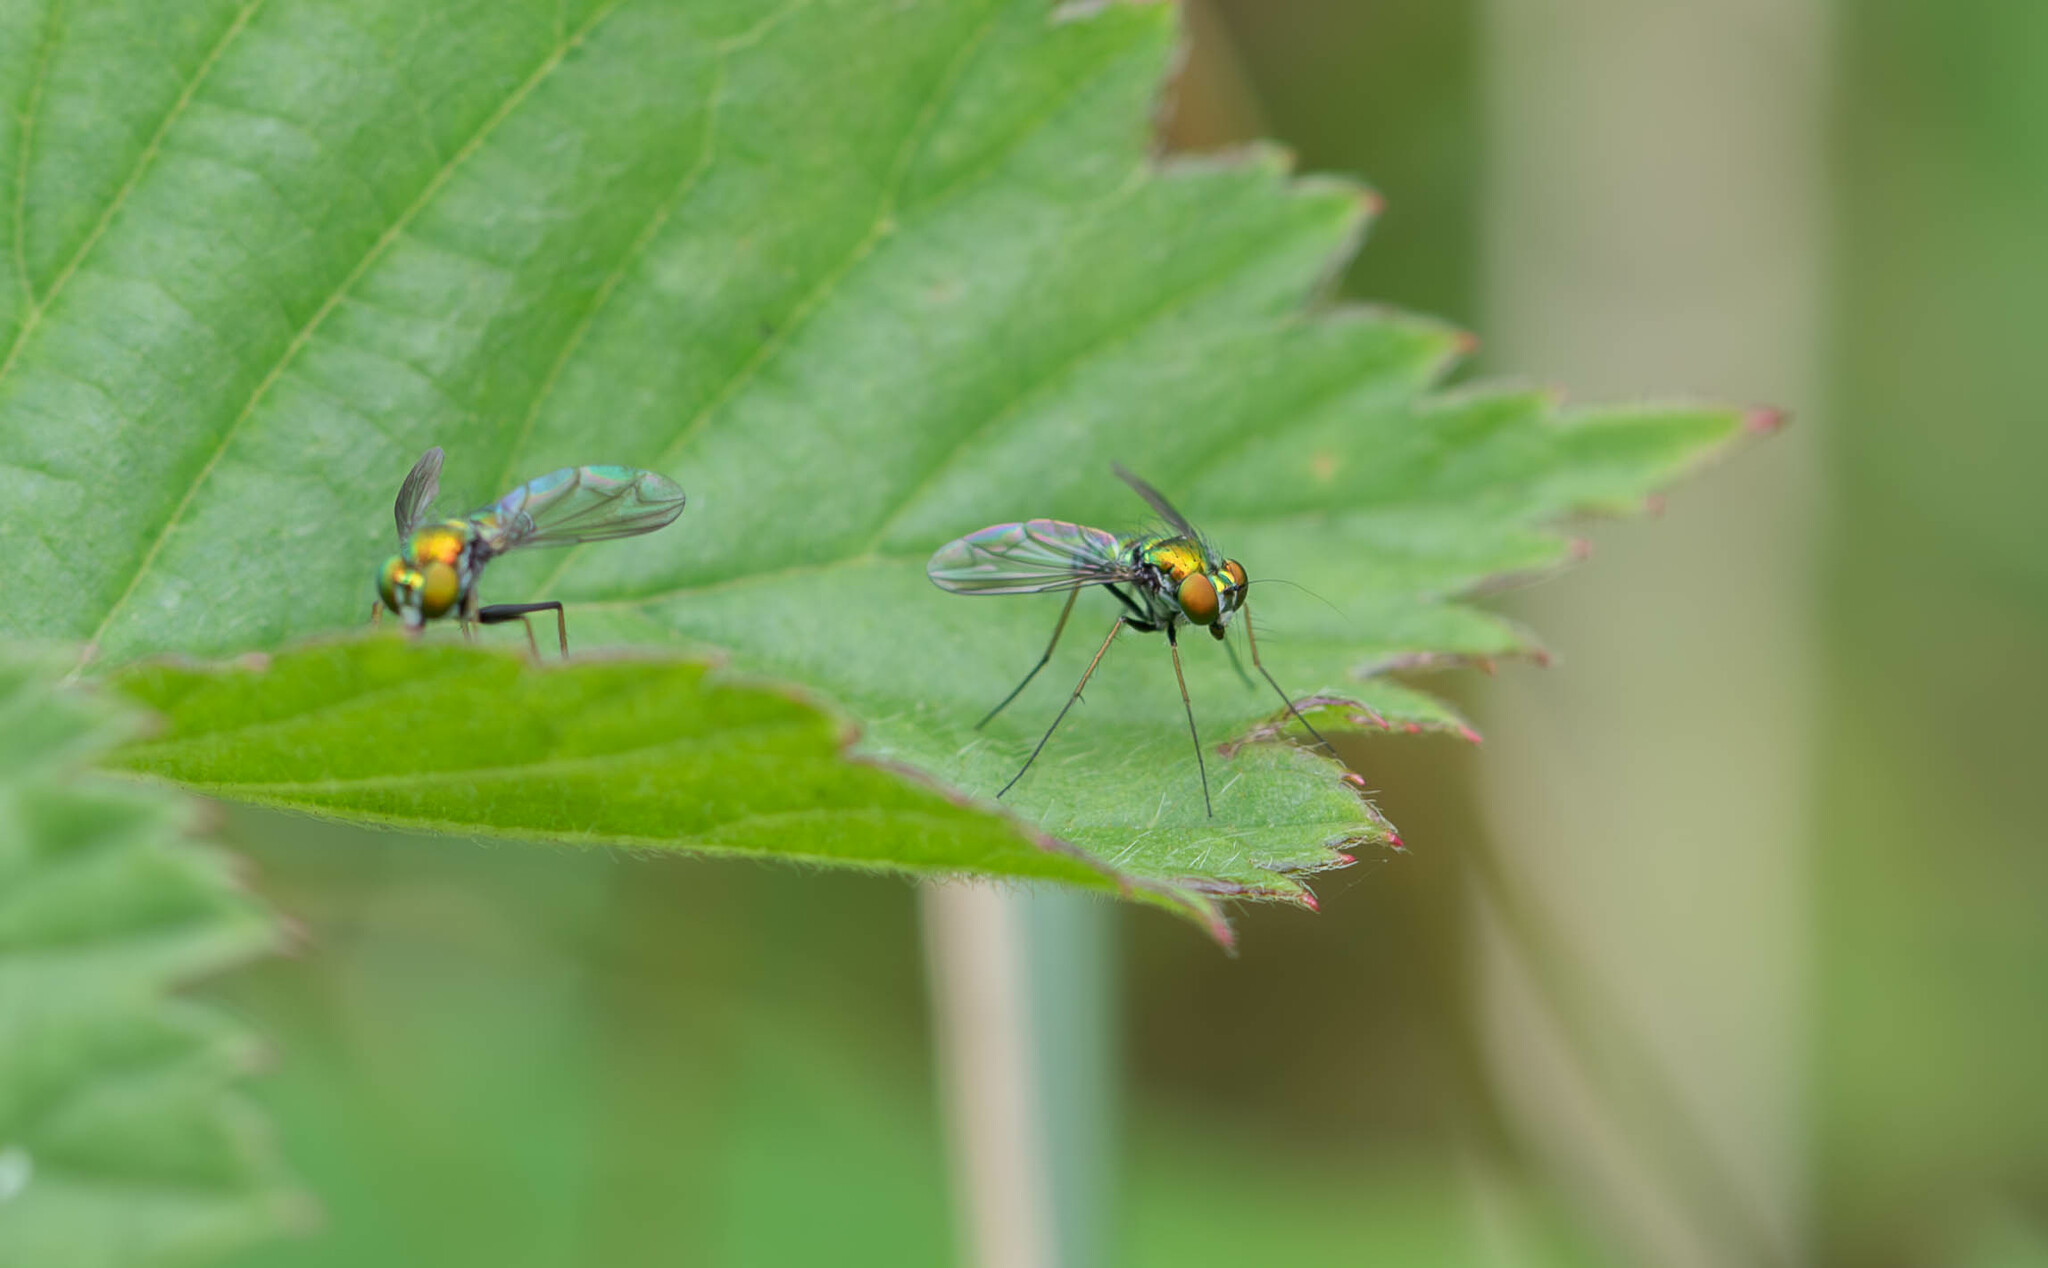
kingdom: Animalia
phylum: Arthropoda
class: Insecta
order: Diptera
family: Dolichopodidae
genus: Condylostylus
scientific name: Condylostylus comatus
